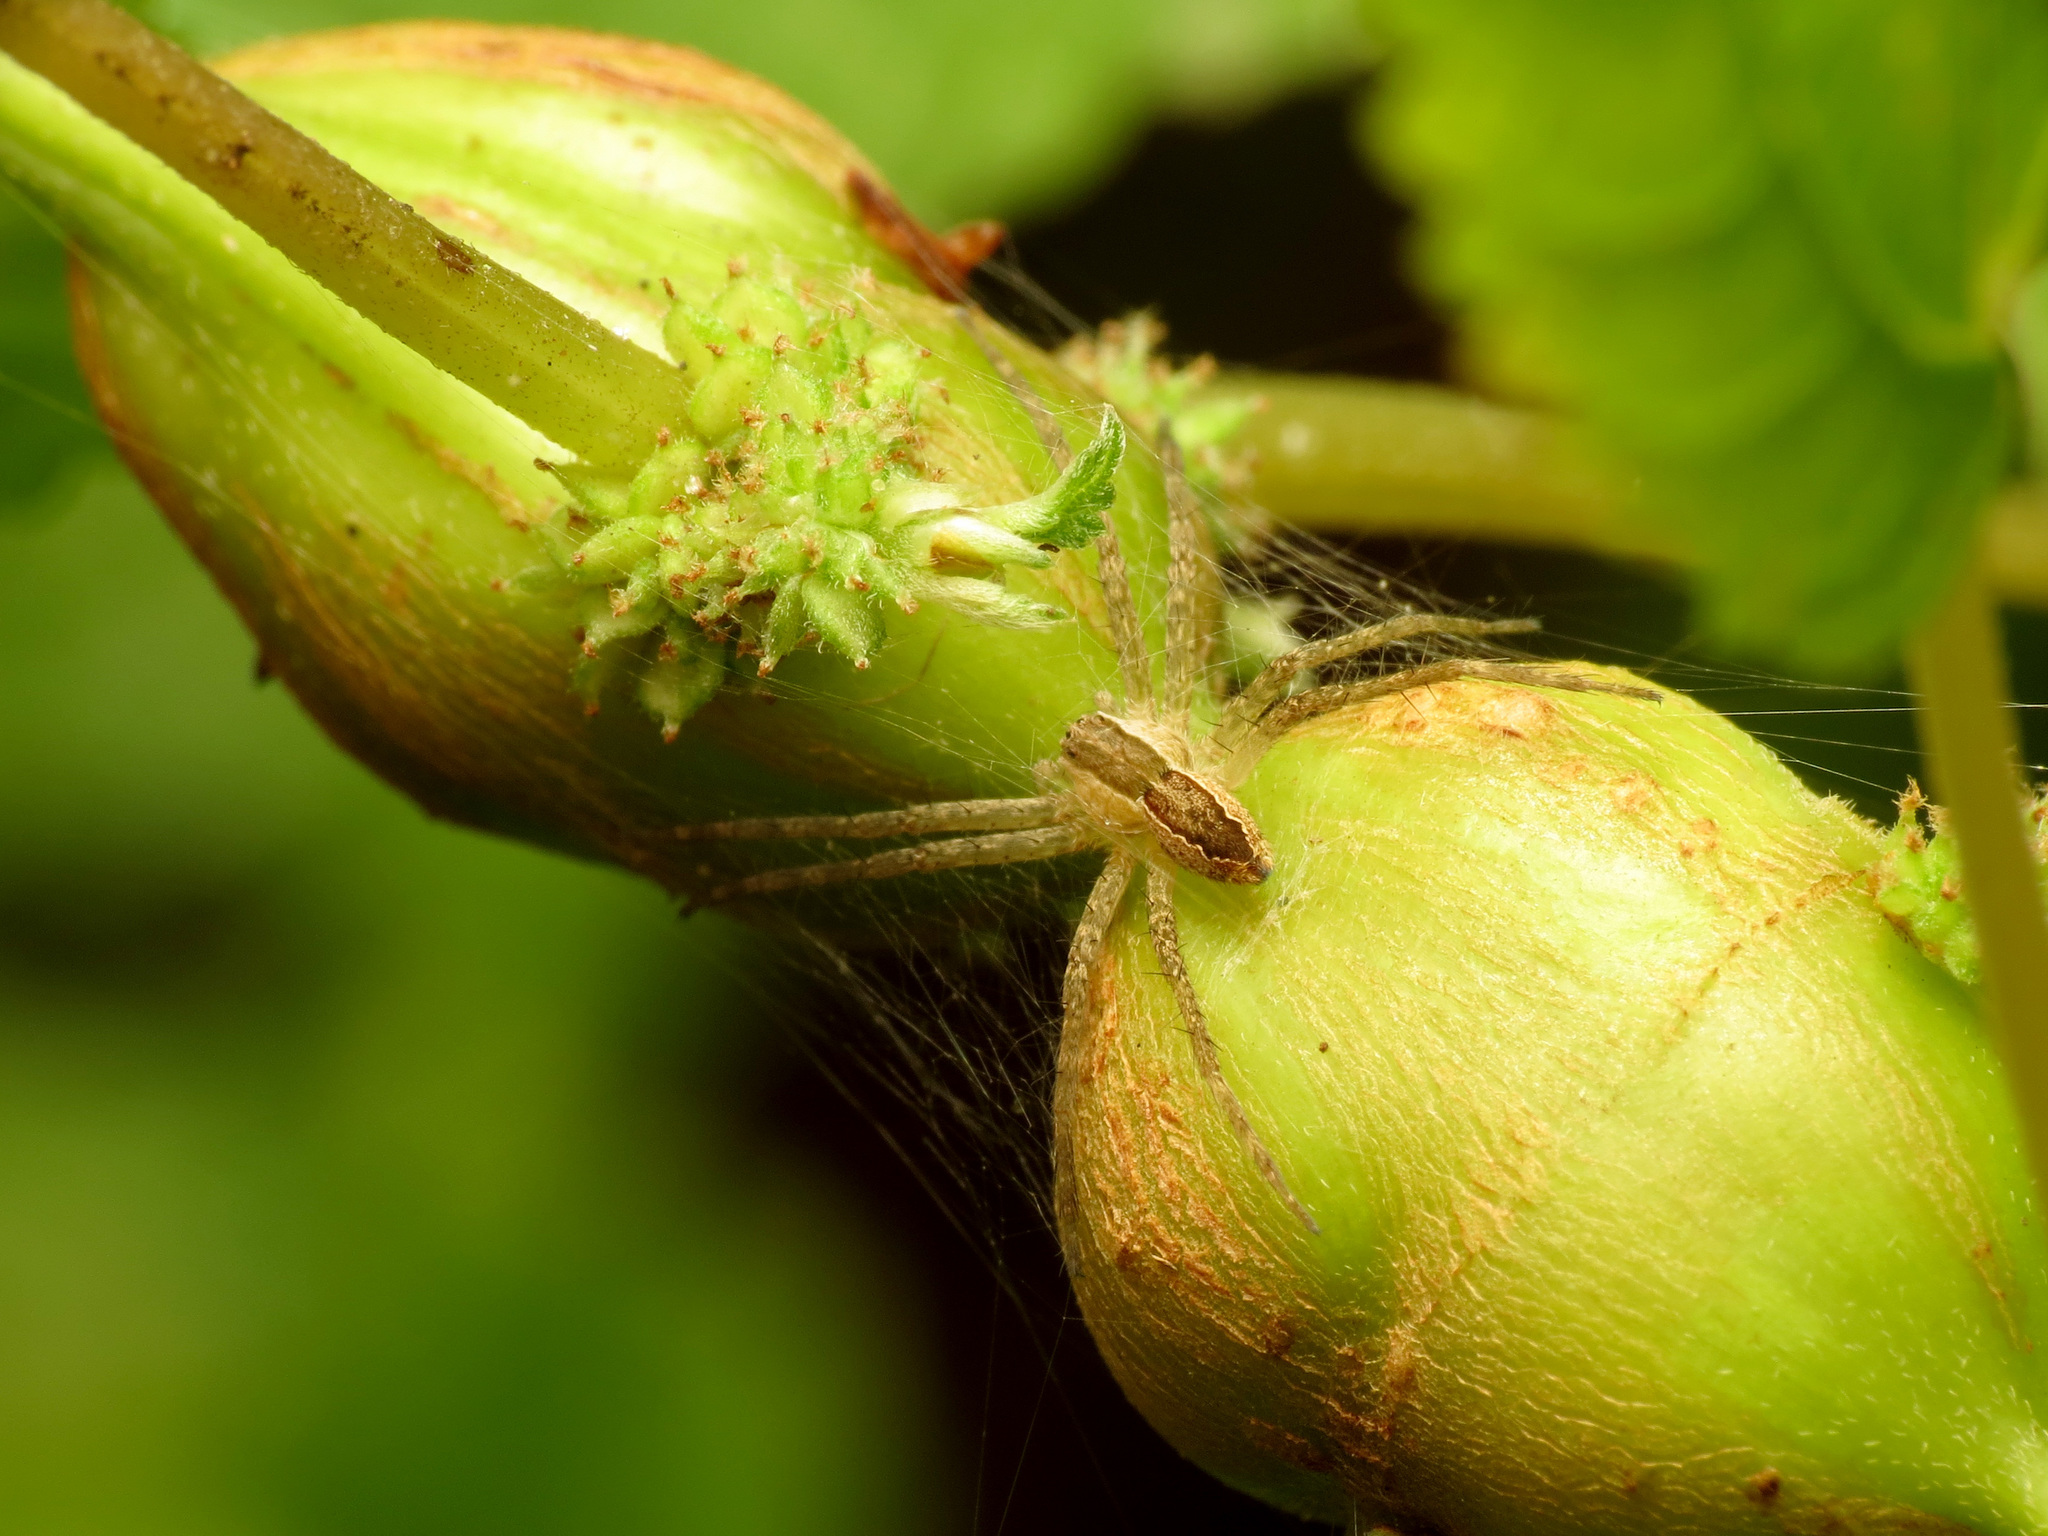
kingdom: Animalia
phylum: Arthropoda
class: Arachnida
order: Araneae
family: Pisauridae
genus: Pisaurina
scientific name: Pisaurina mira
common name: American nursery web spider
